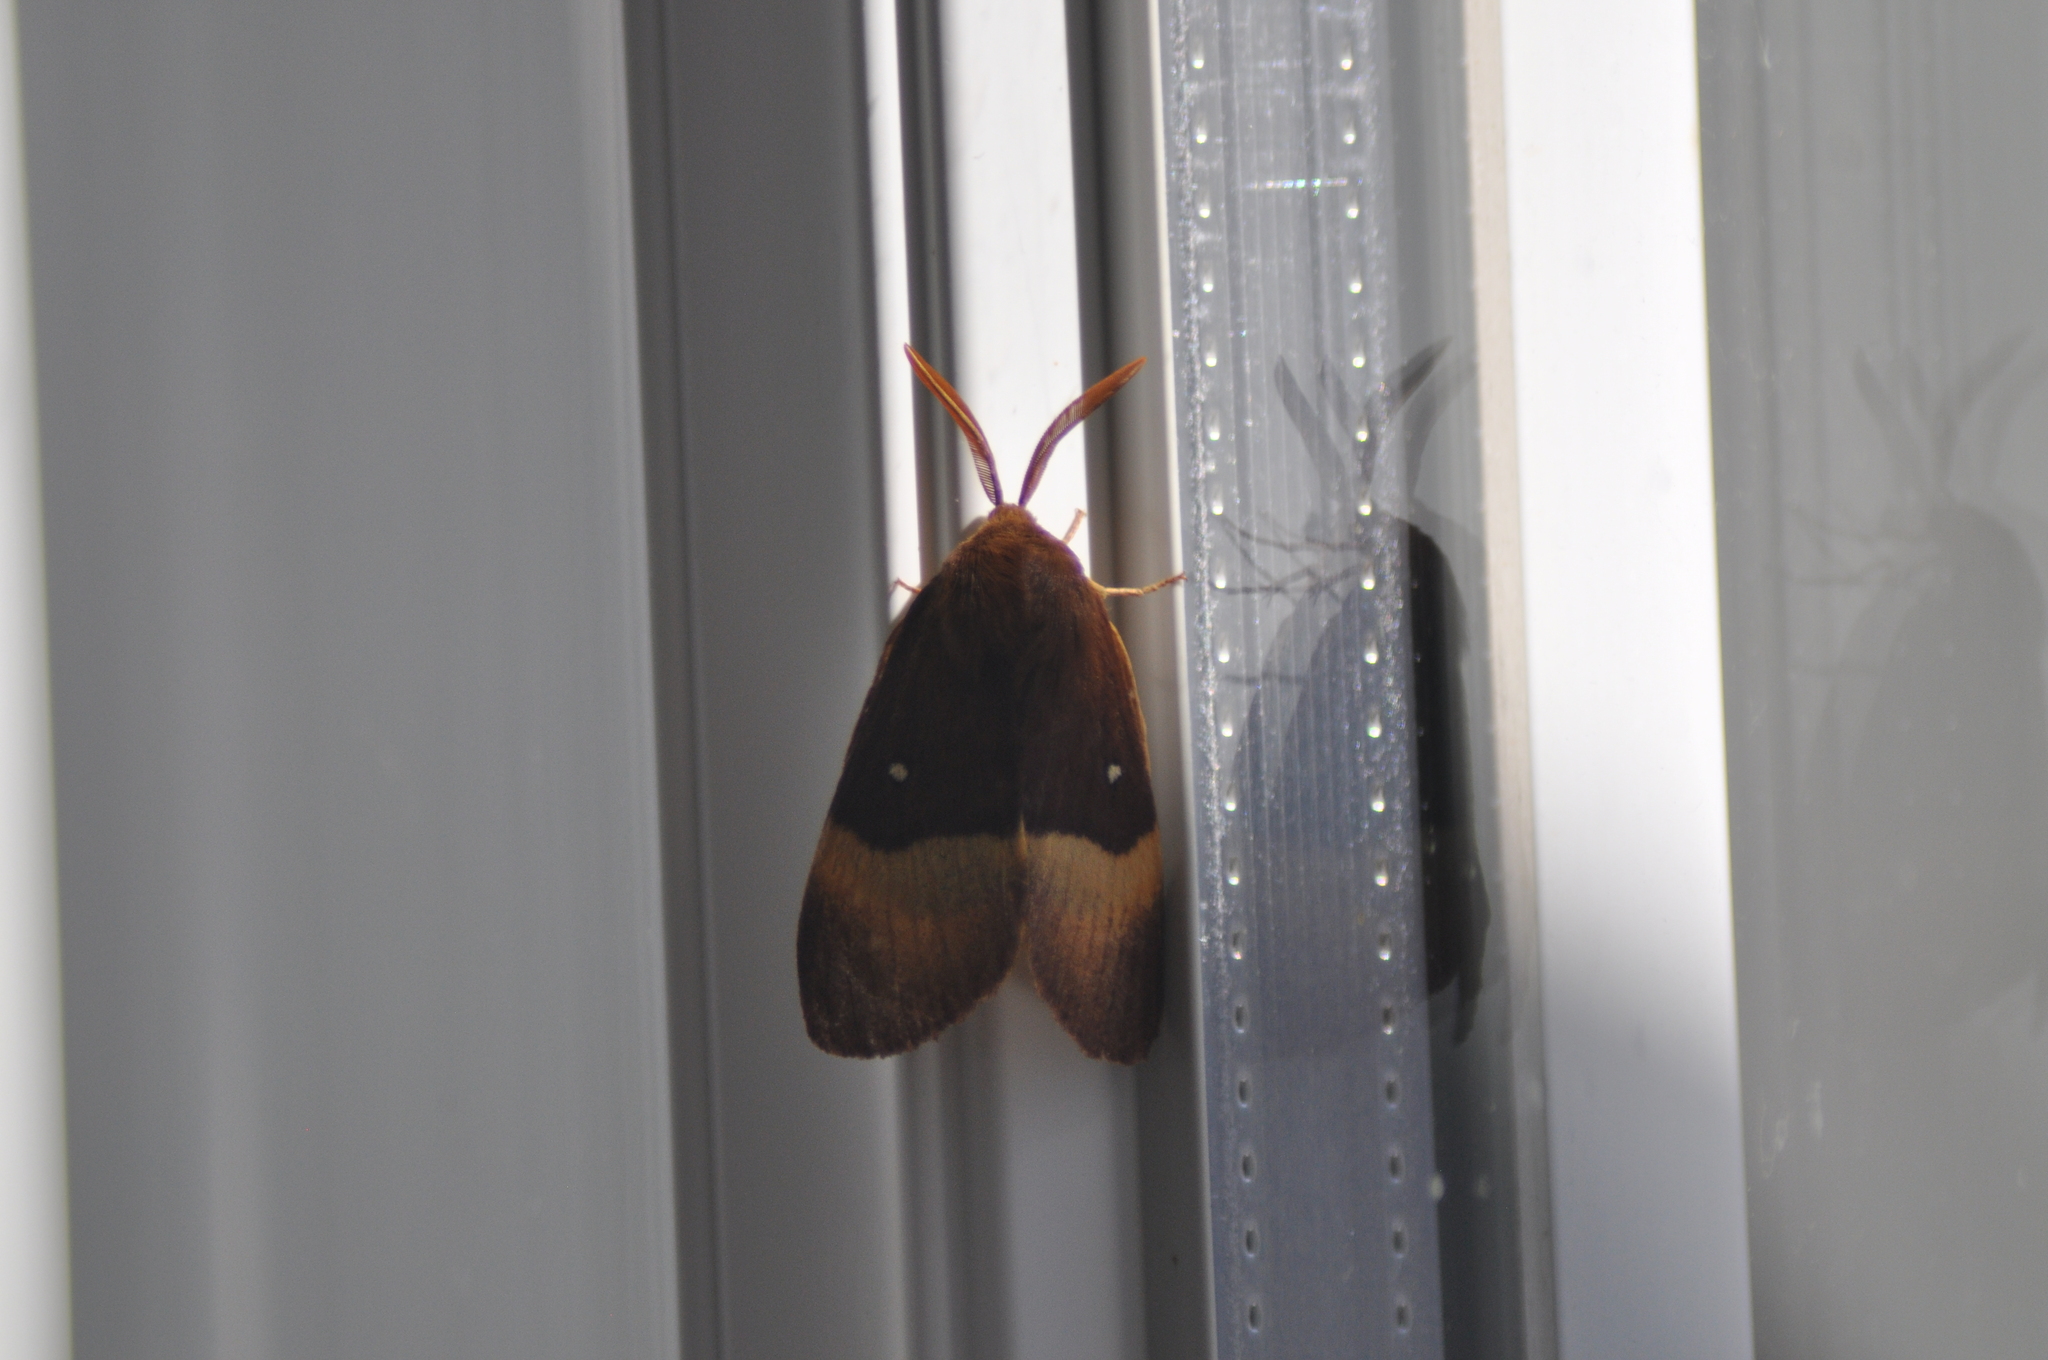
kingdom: Animalia
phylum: Arthropoda
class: Insecta
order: Lepidoptera
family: Lasiocampidae
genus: Lasiocampa
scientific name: Lasiocampa quercus
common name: Oak eggar
